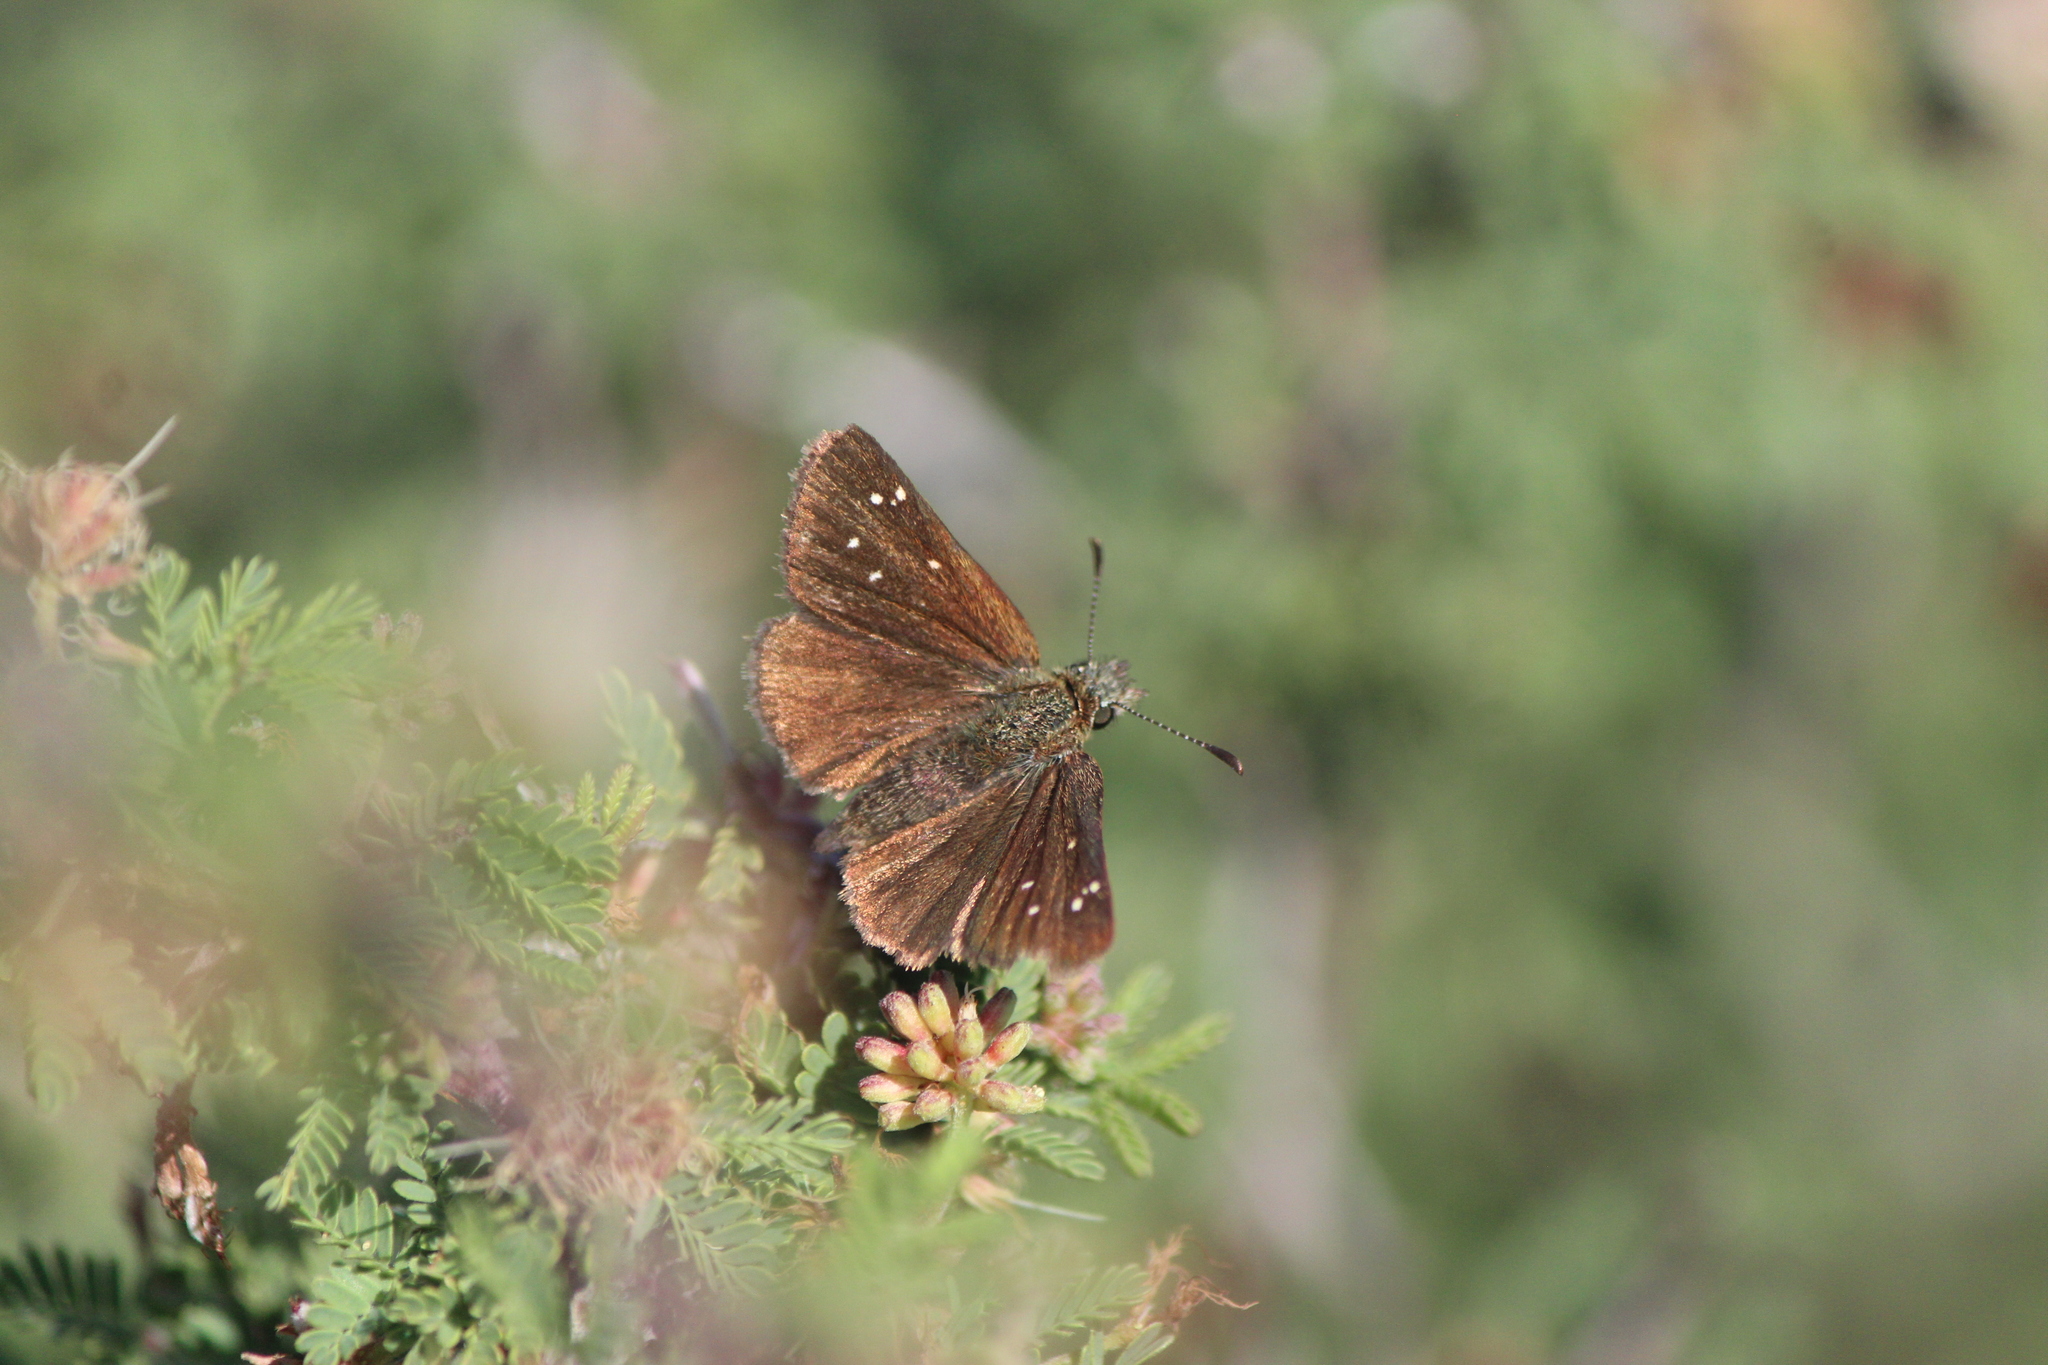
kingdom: Animalia
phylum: Arthropoda
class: Insecta
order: Lepidoptera
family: Hesperiidae
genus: Piruna
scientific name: Piruna cyclosticta
